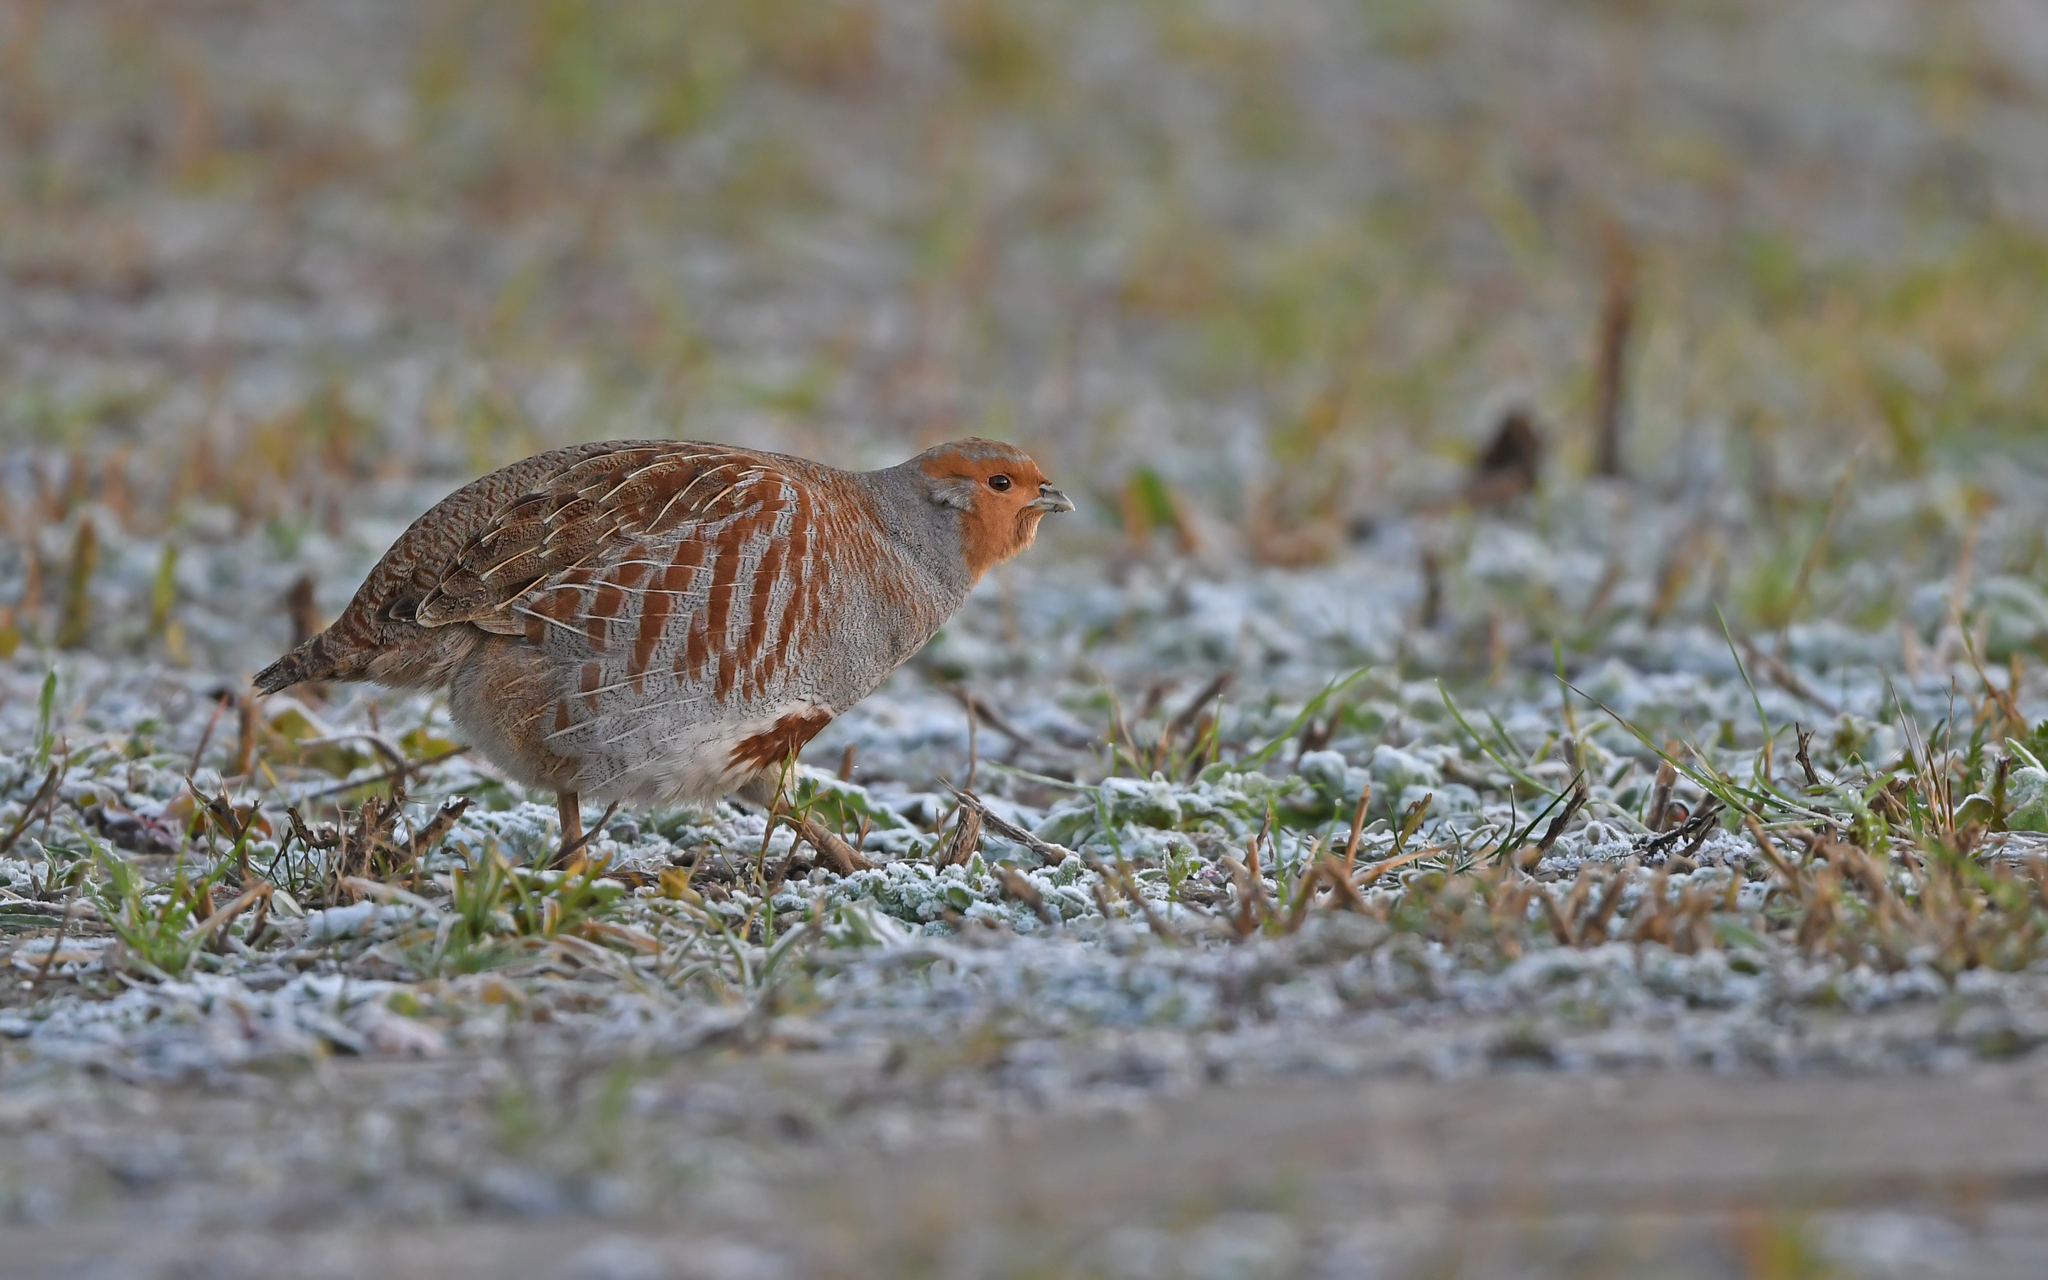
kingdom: Animalia
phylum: Chordata
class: Aves
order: Galliformes
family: Phasianidae
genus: Perdix
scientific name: Perdix perdix
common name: Grey partridge
